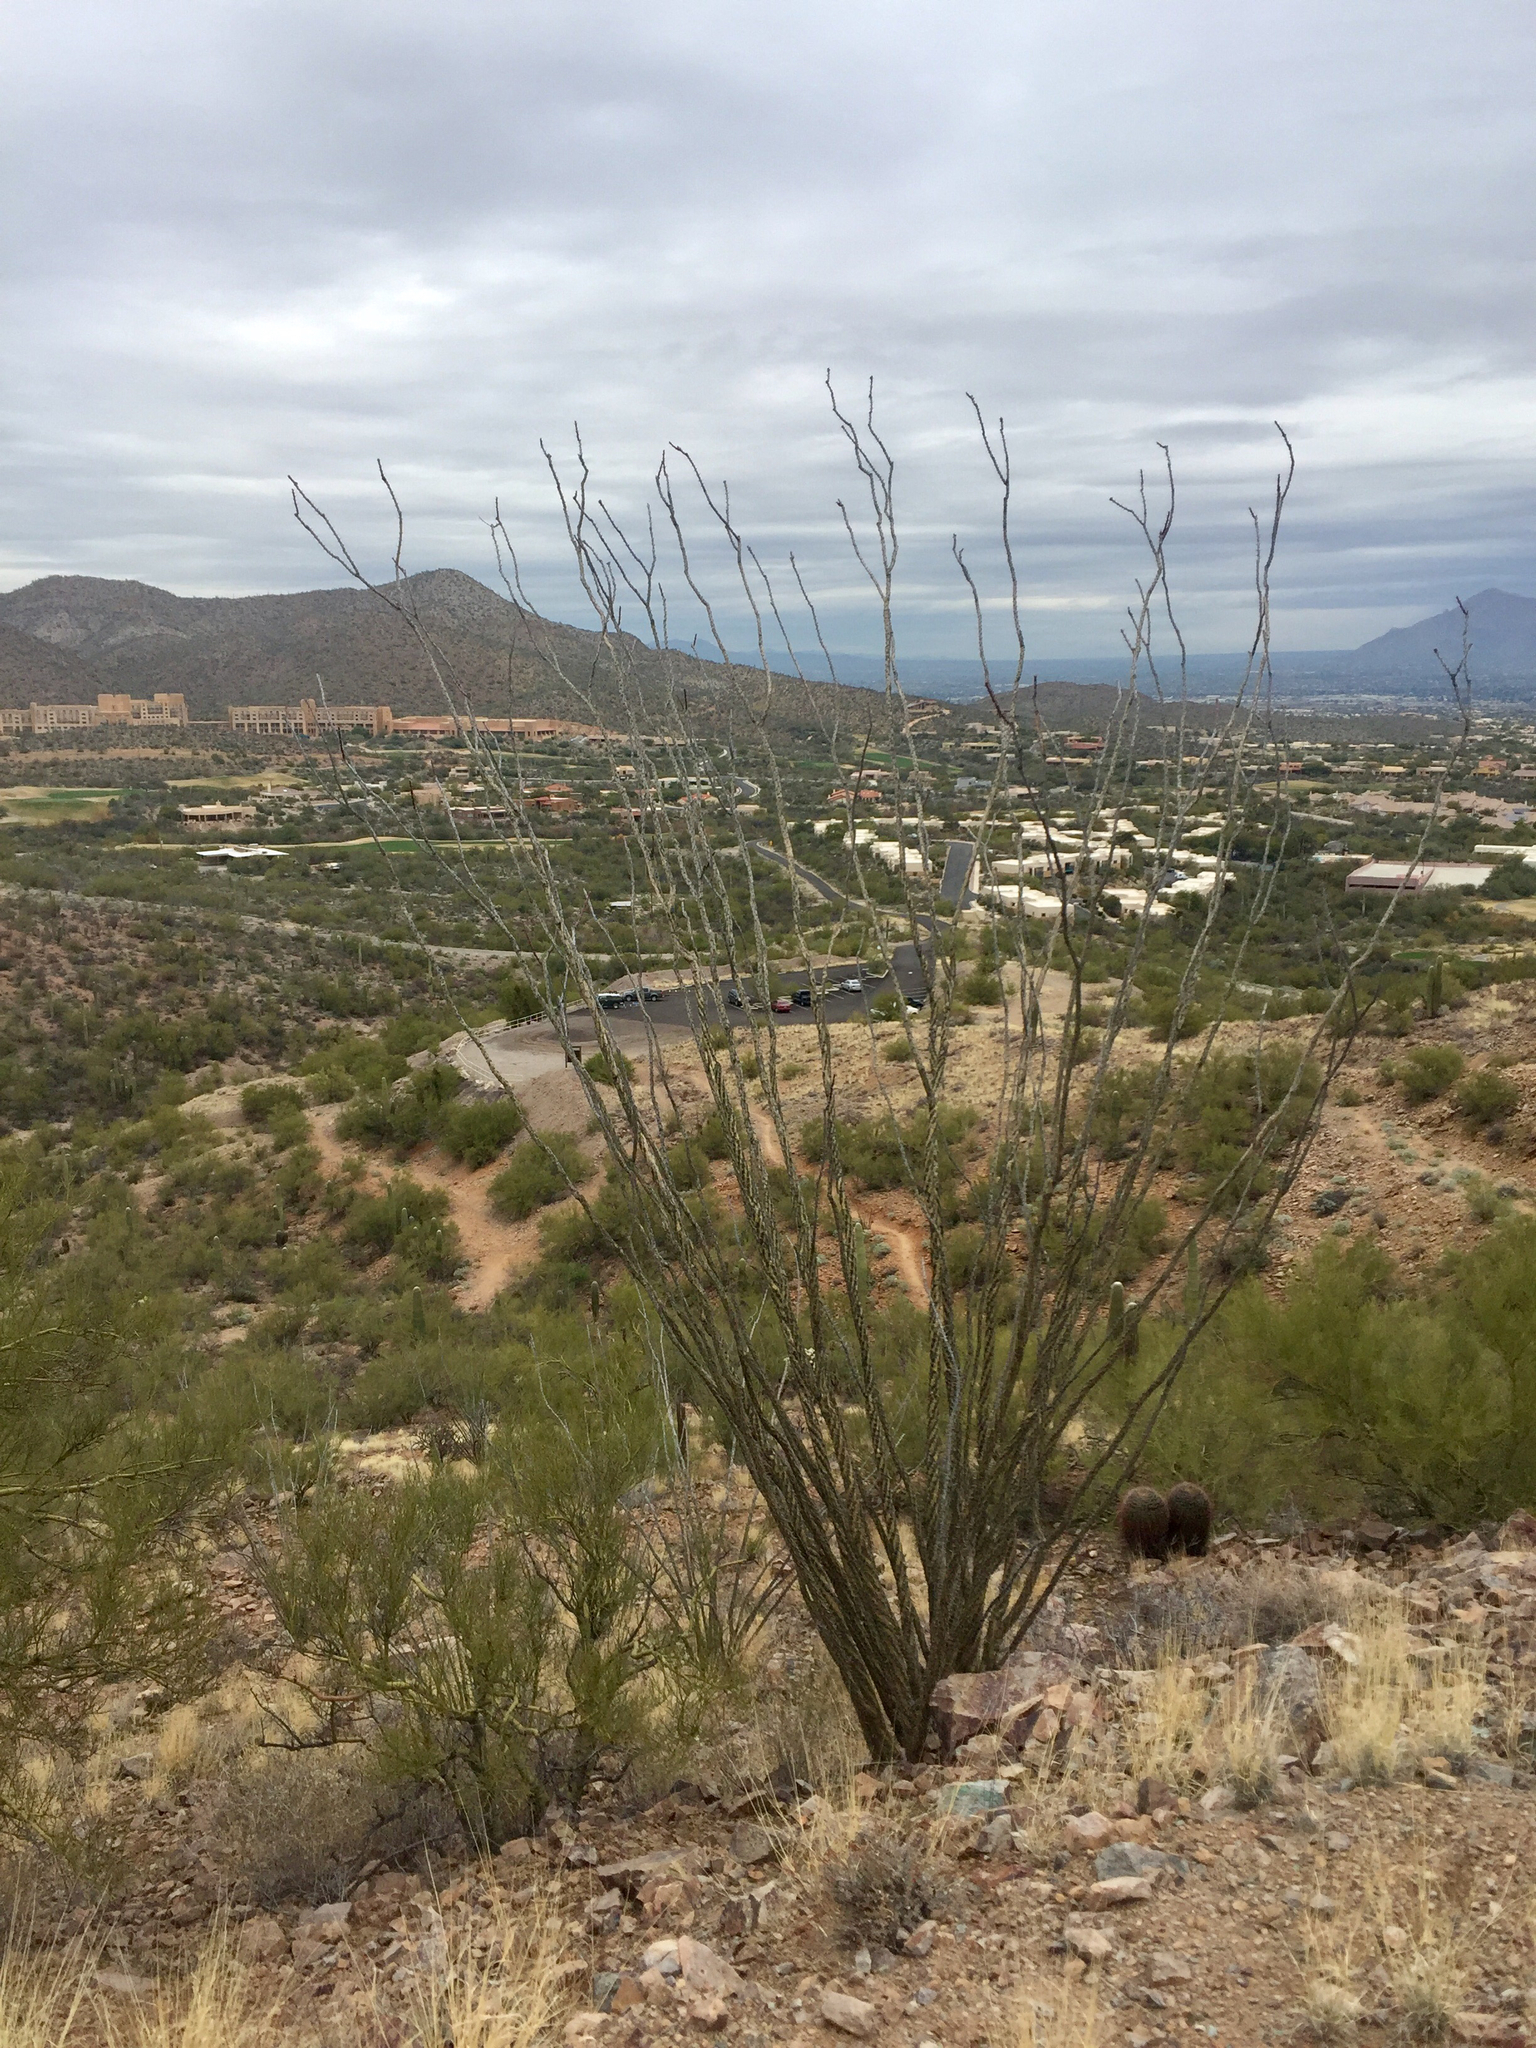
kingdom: Plantae
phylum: Tracheophyta
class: Magnoliopsida
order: Ericales
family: Fouquieriaceae
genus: Fouquieria
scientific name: Fouquieria splendens
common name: Vine-cactus
